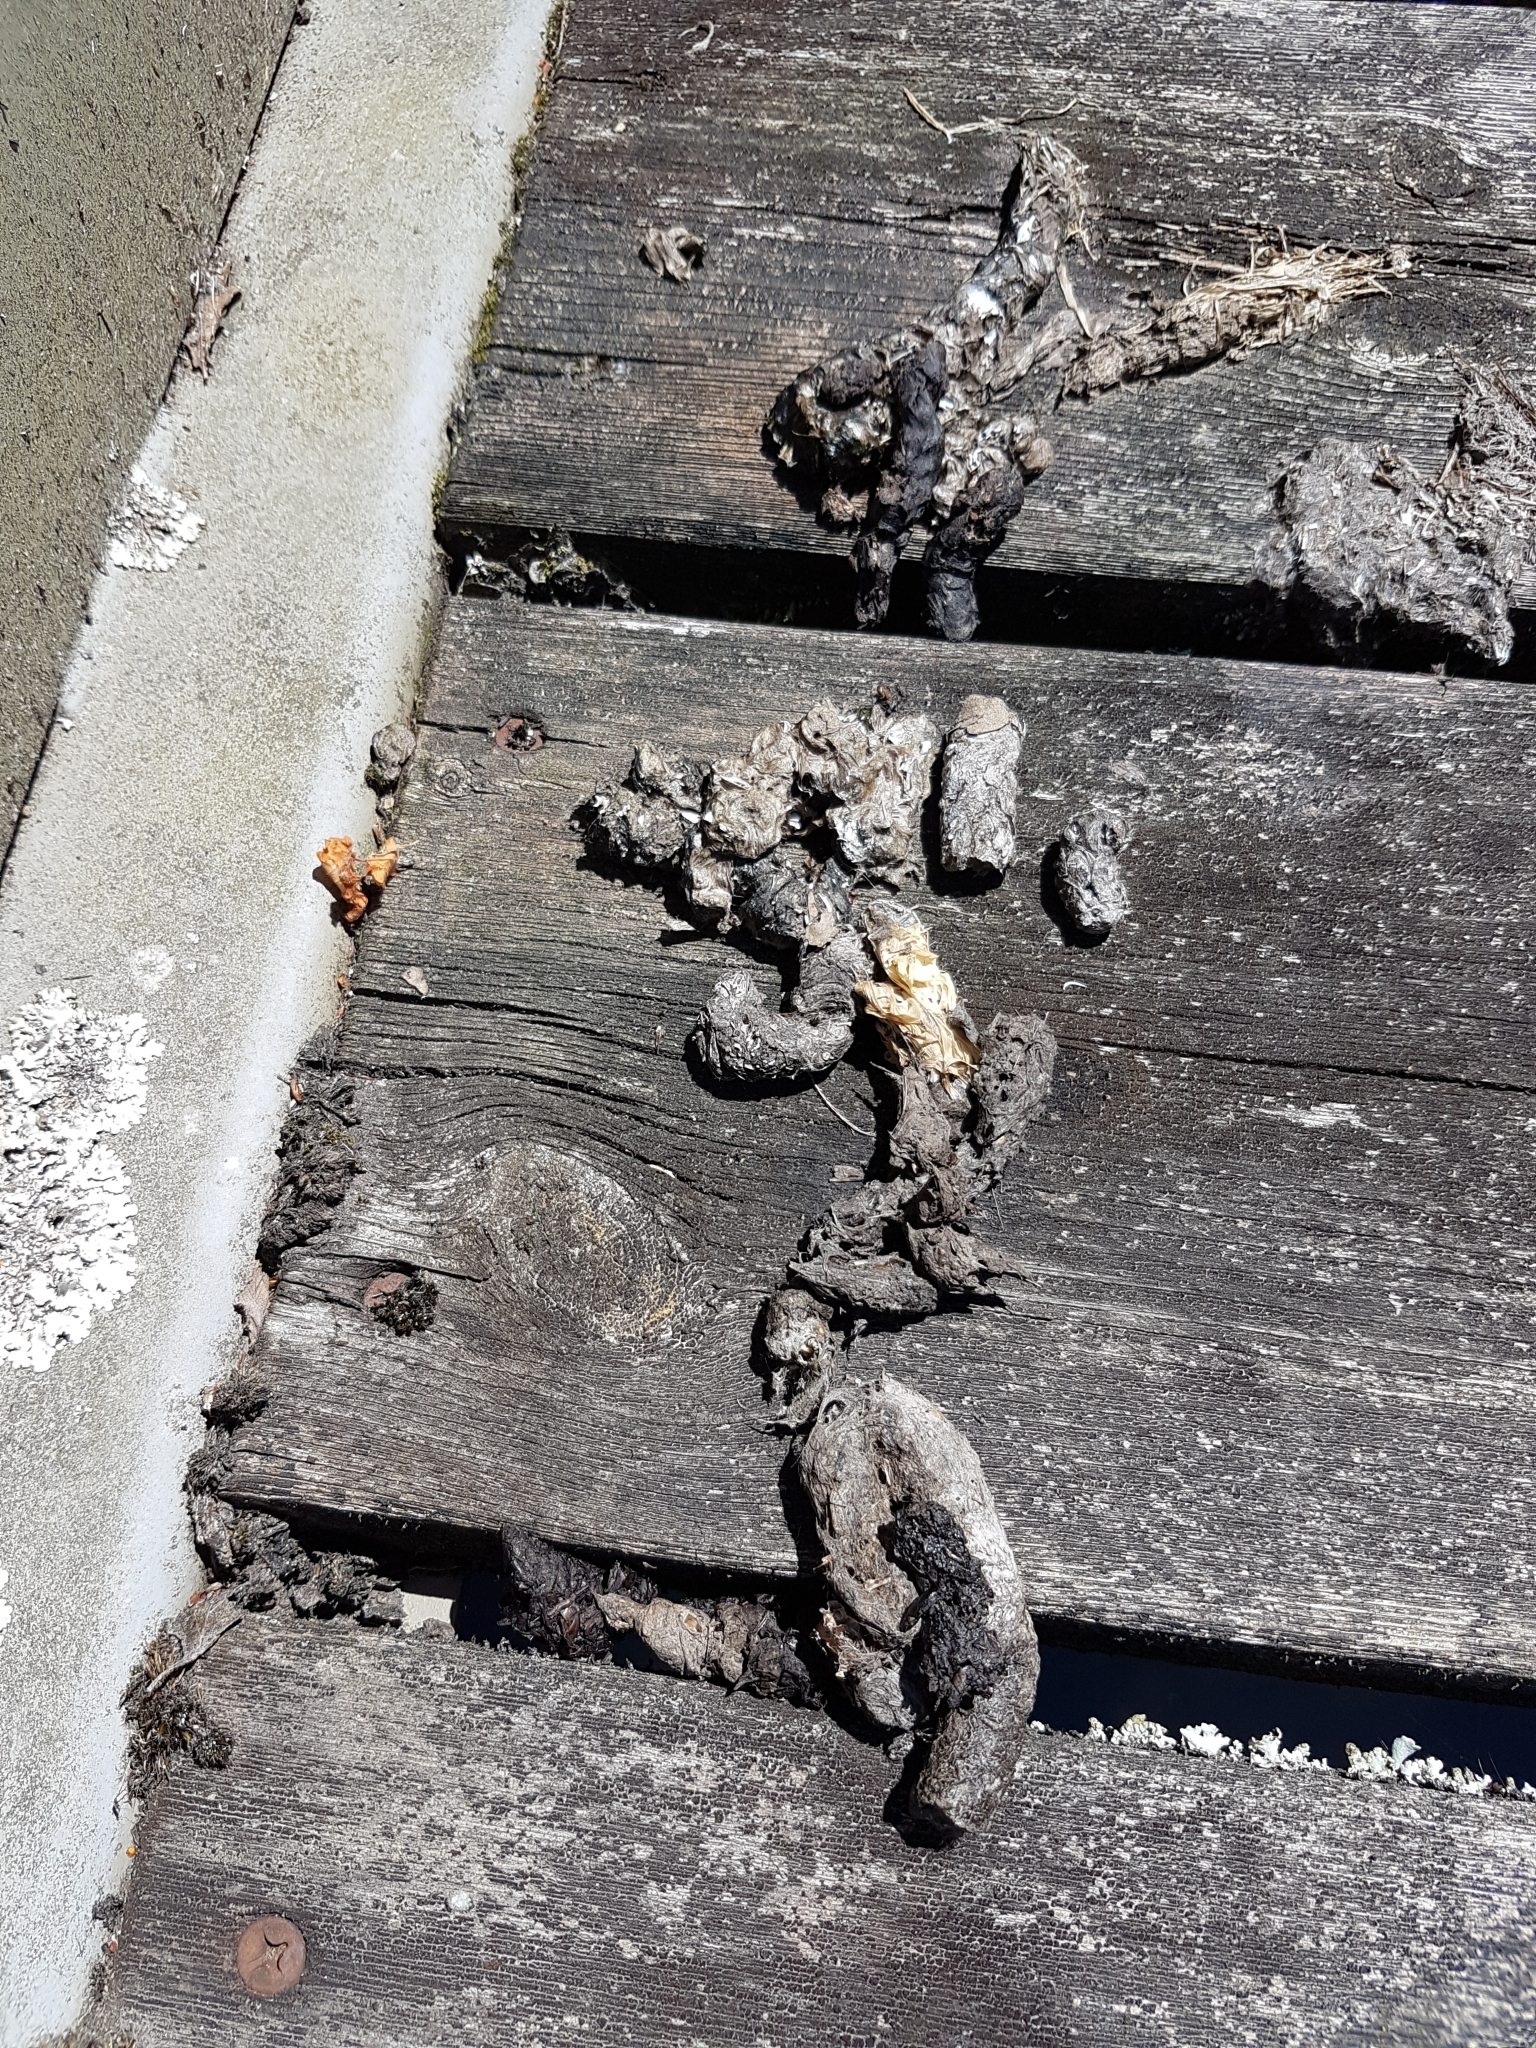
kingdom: Animalia
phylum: Chordata
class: Mammalia
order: Carnivora
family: Viverridae
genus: Genetta
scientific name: Genetta genetta
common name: Common genet
